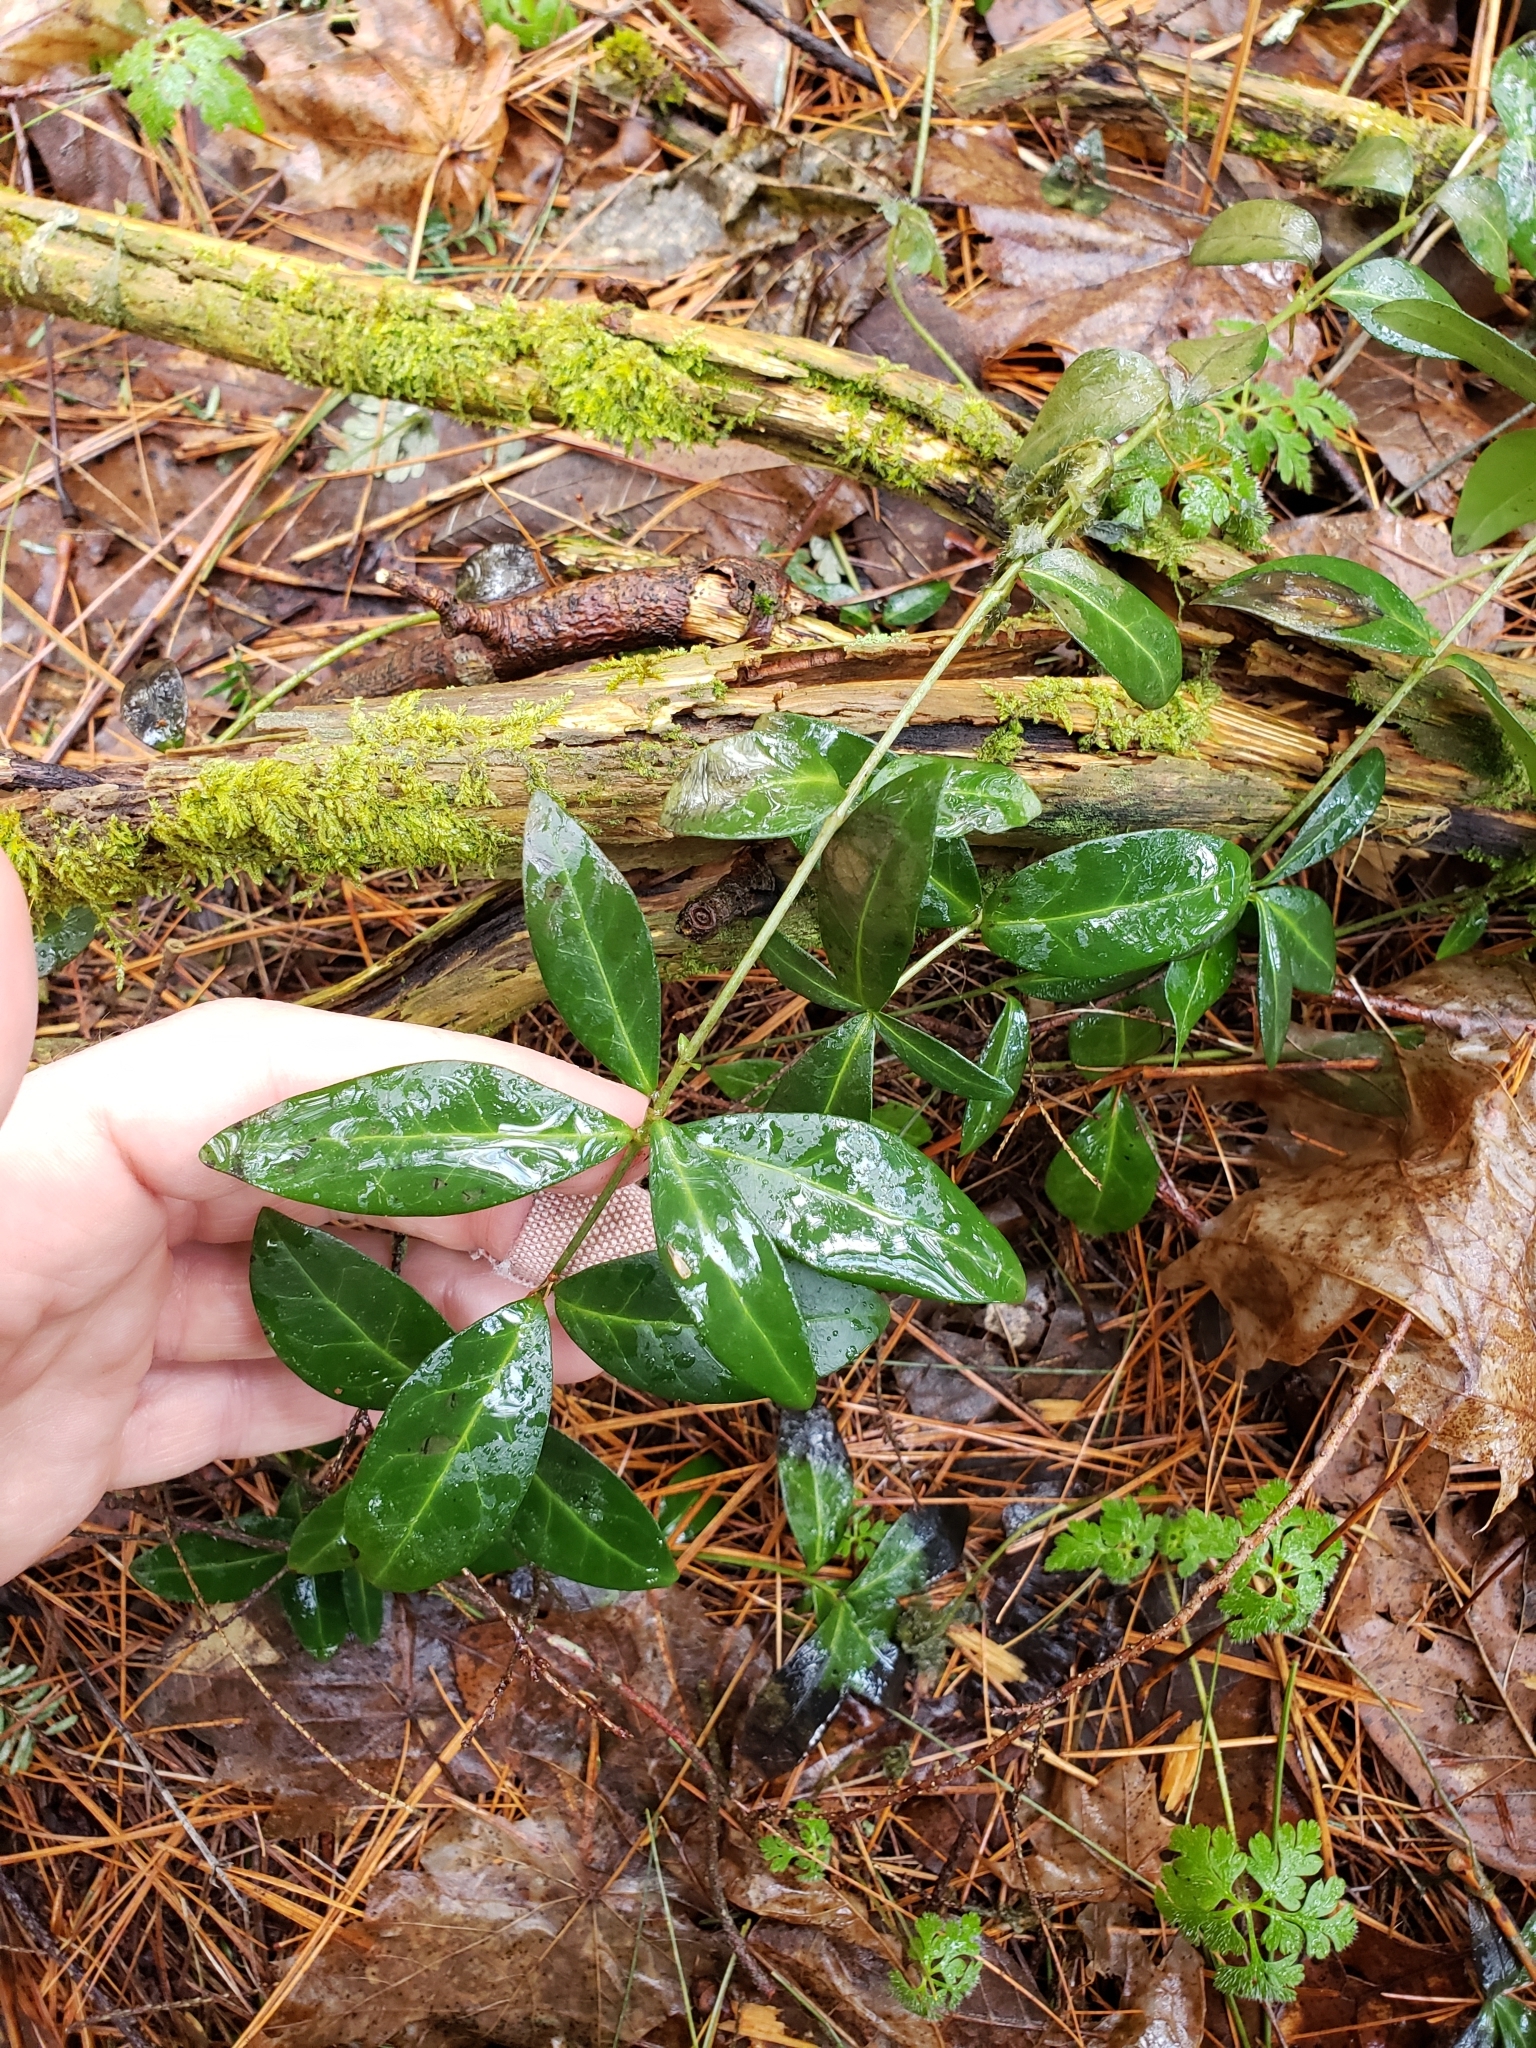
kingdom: Plantae
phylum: Tracheophyta
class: Magnoliopsida
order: Gentianales
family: Apocynaceae
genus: Vinca
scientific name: Vinca minor
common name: Lesser periwinkle
